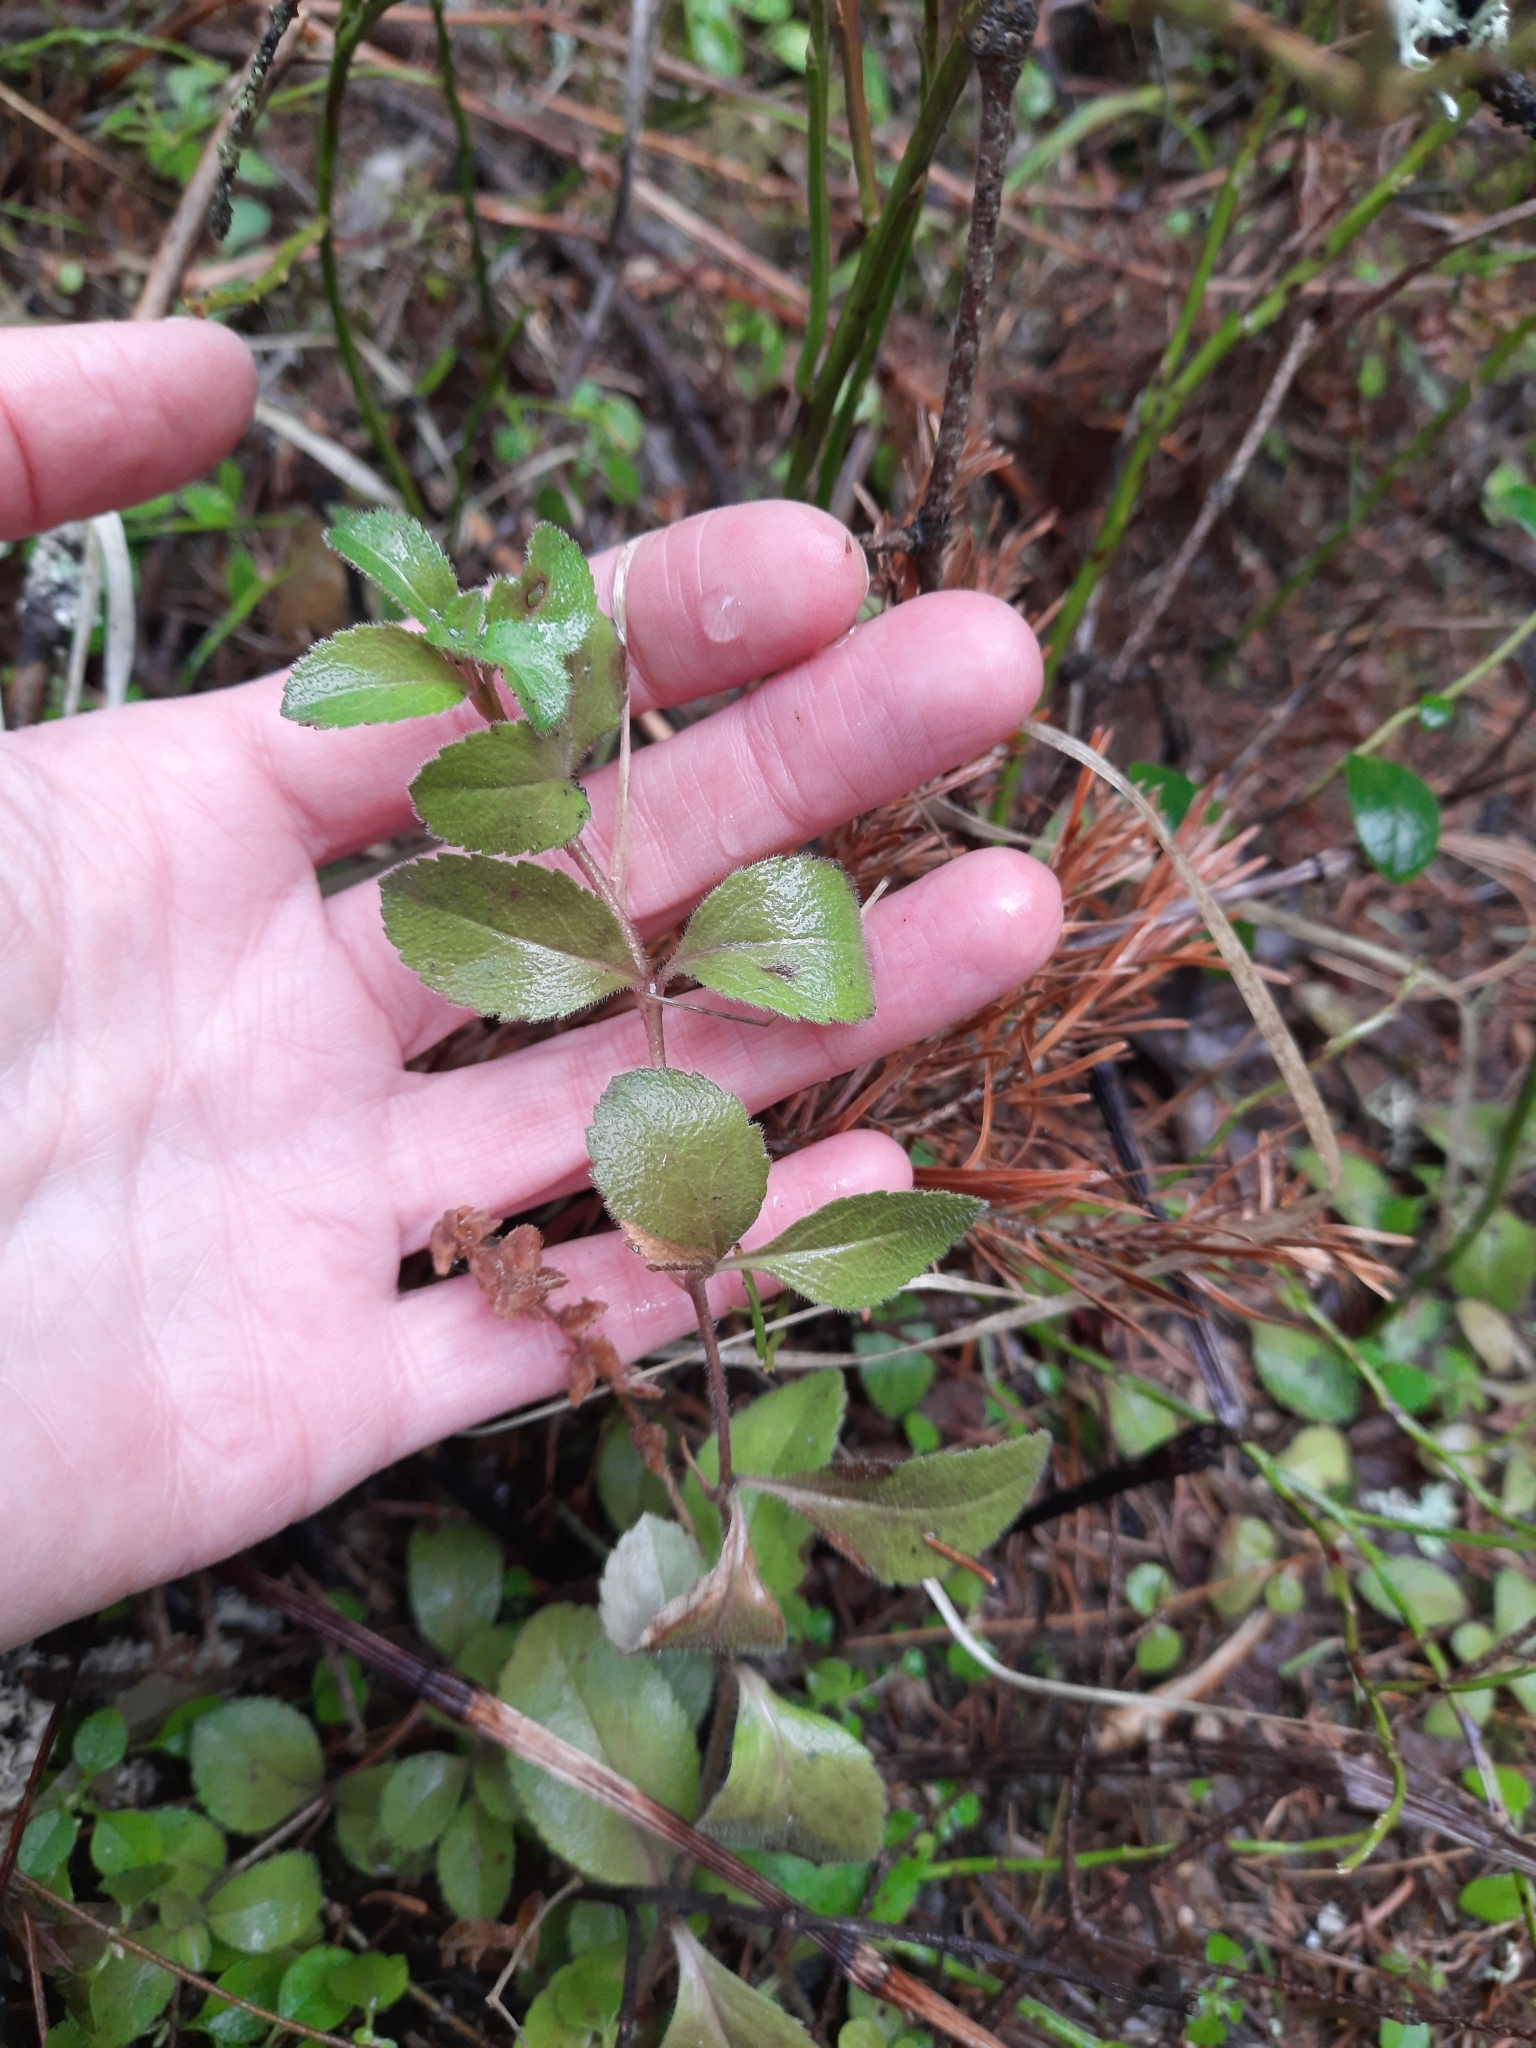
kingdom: Plantae
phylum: Tracheophyta
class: Magnoliopsida
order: Lamiales
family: Plantaginaceae
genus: Veronica
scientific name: Veronica officinalis
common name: Common speedwell
